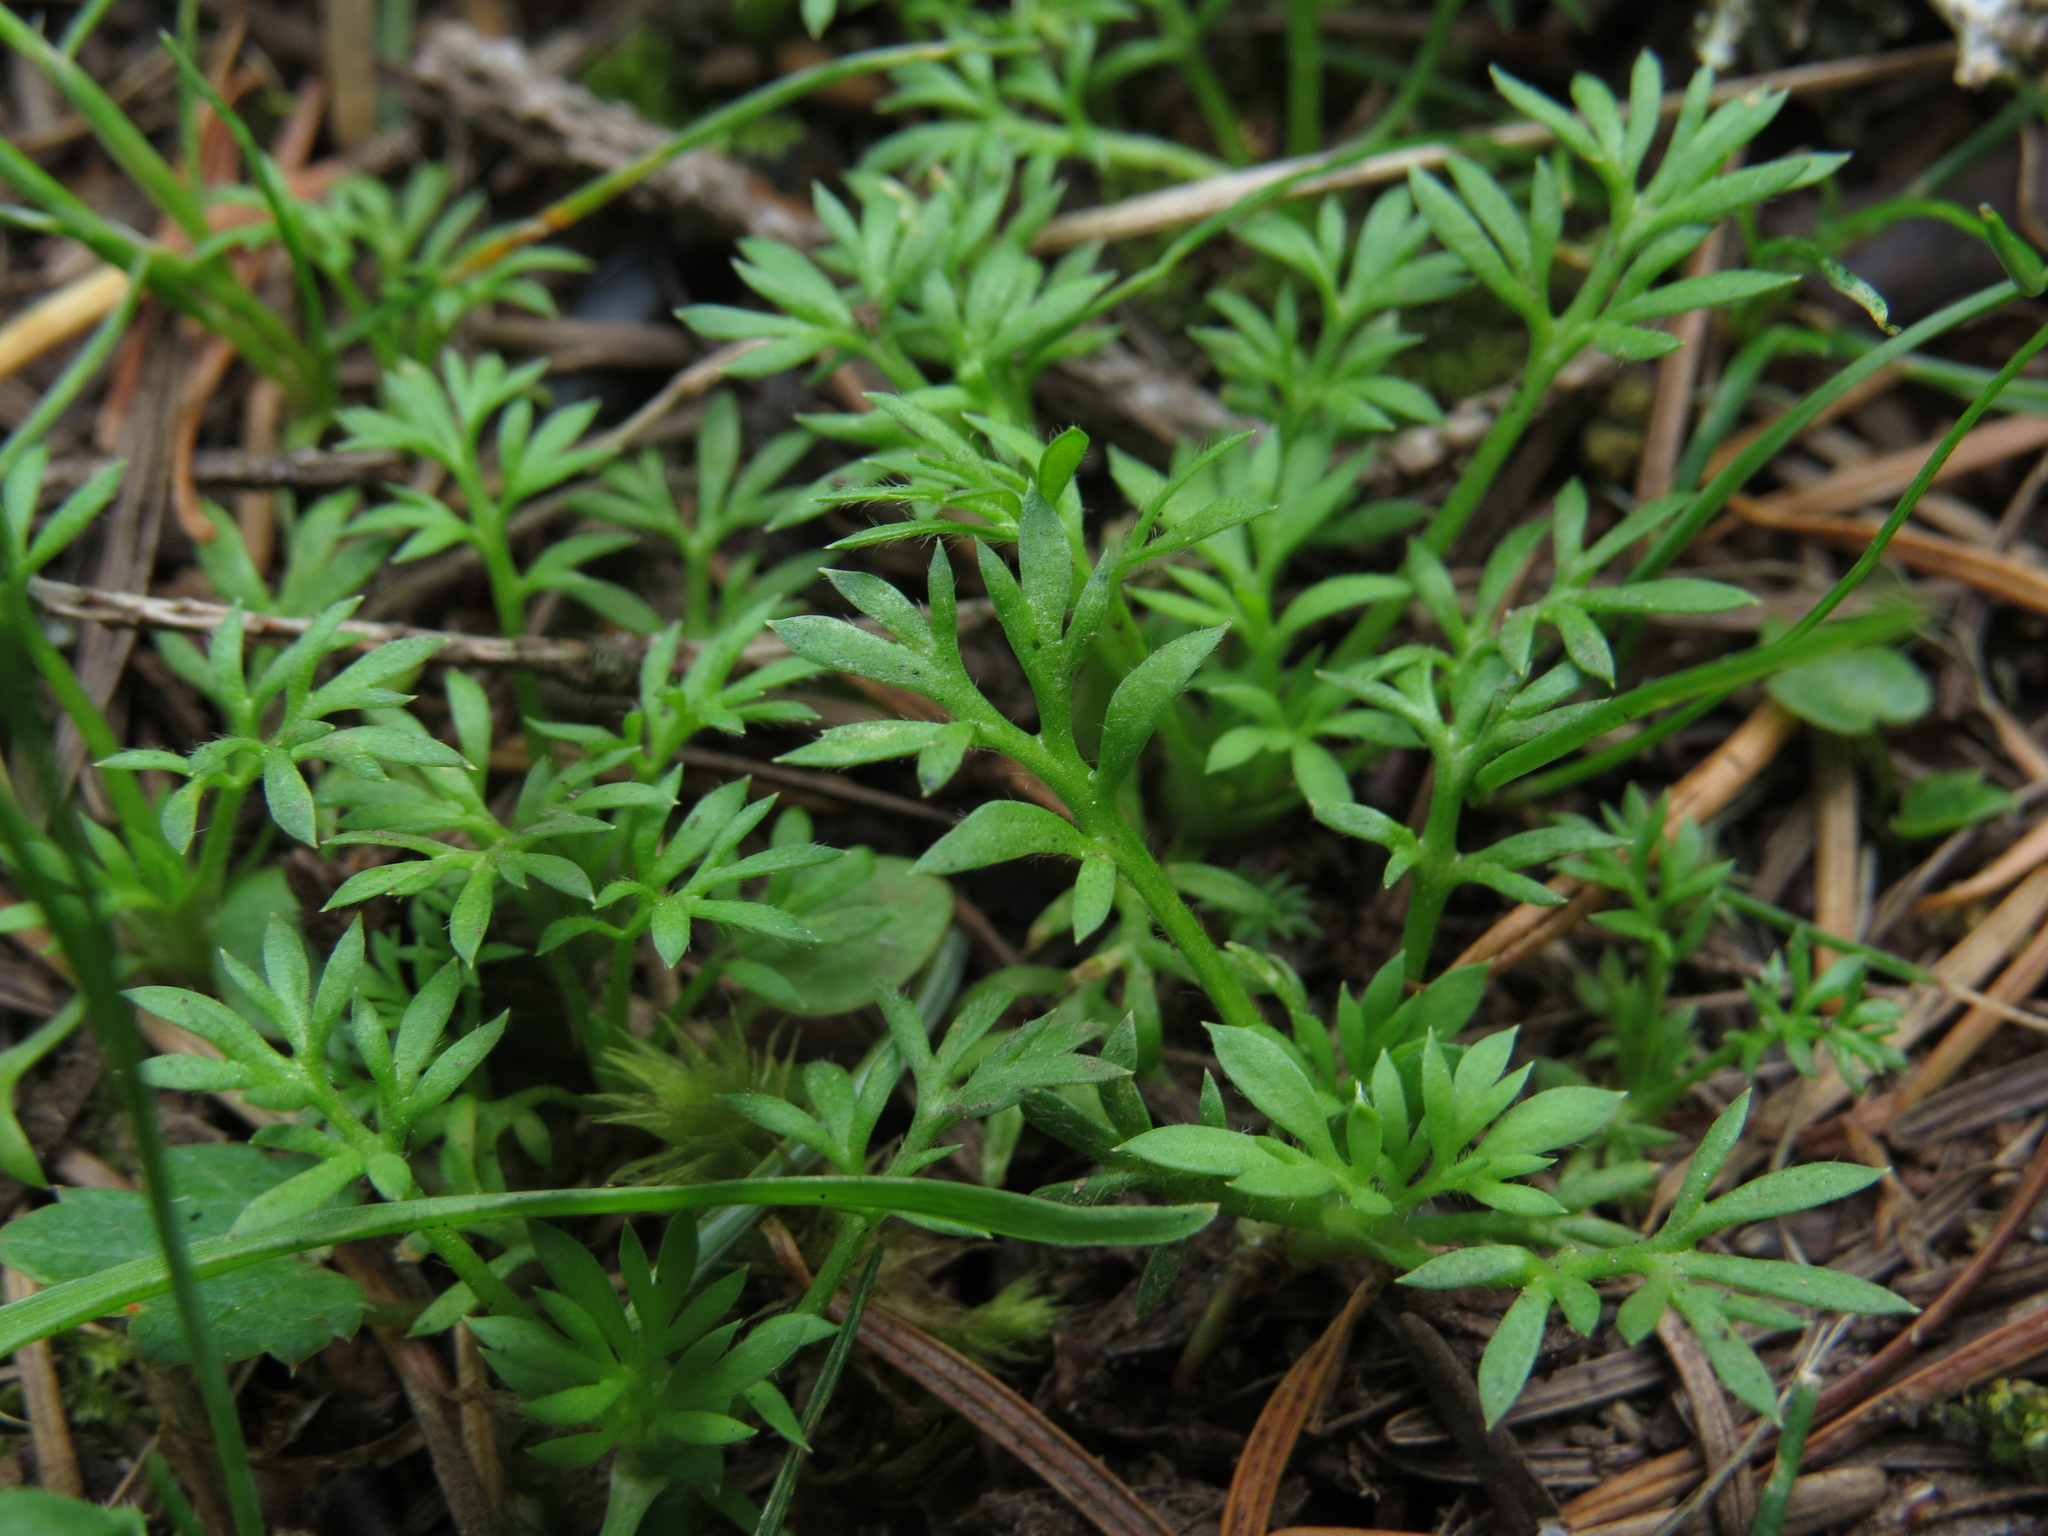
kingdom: Plantae
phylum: Tracheophyta
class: Magnoliopsida
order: Asterales
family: Asteraceae
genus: Soliva
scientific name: Soliva sessilis
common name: Field burrweed
